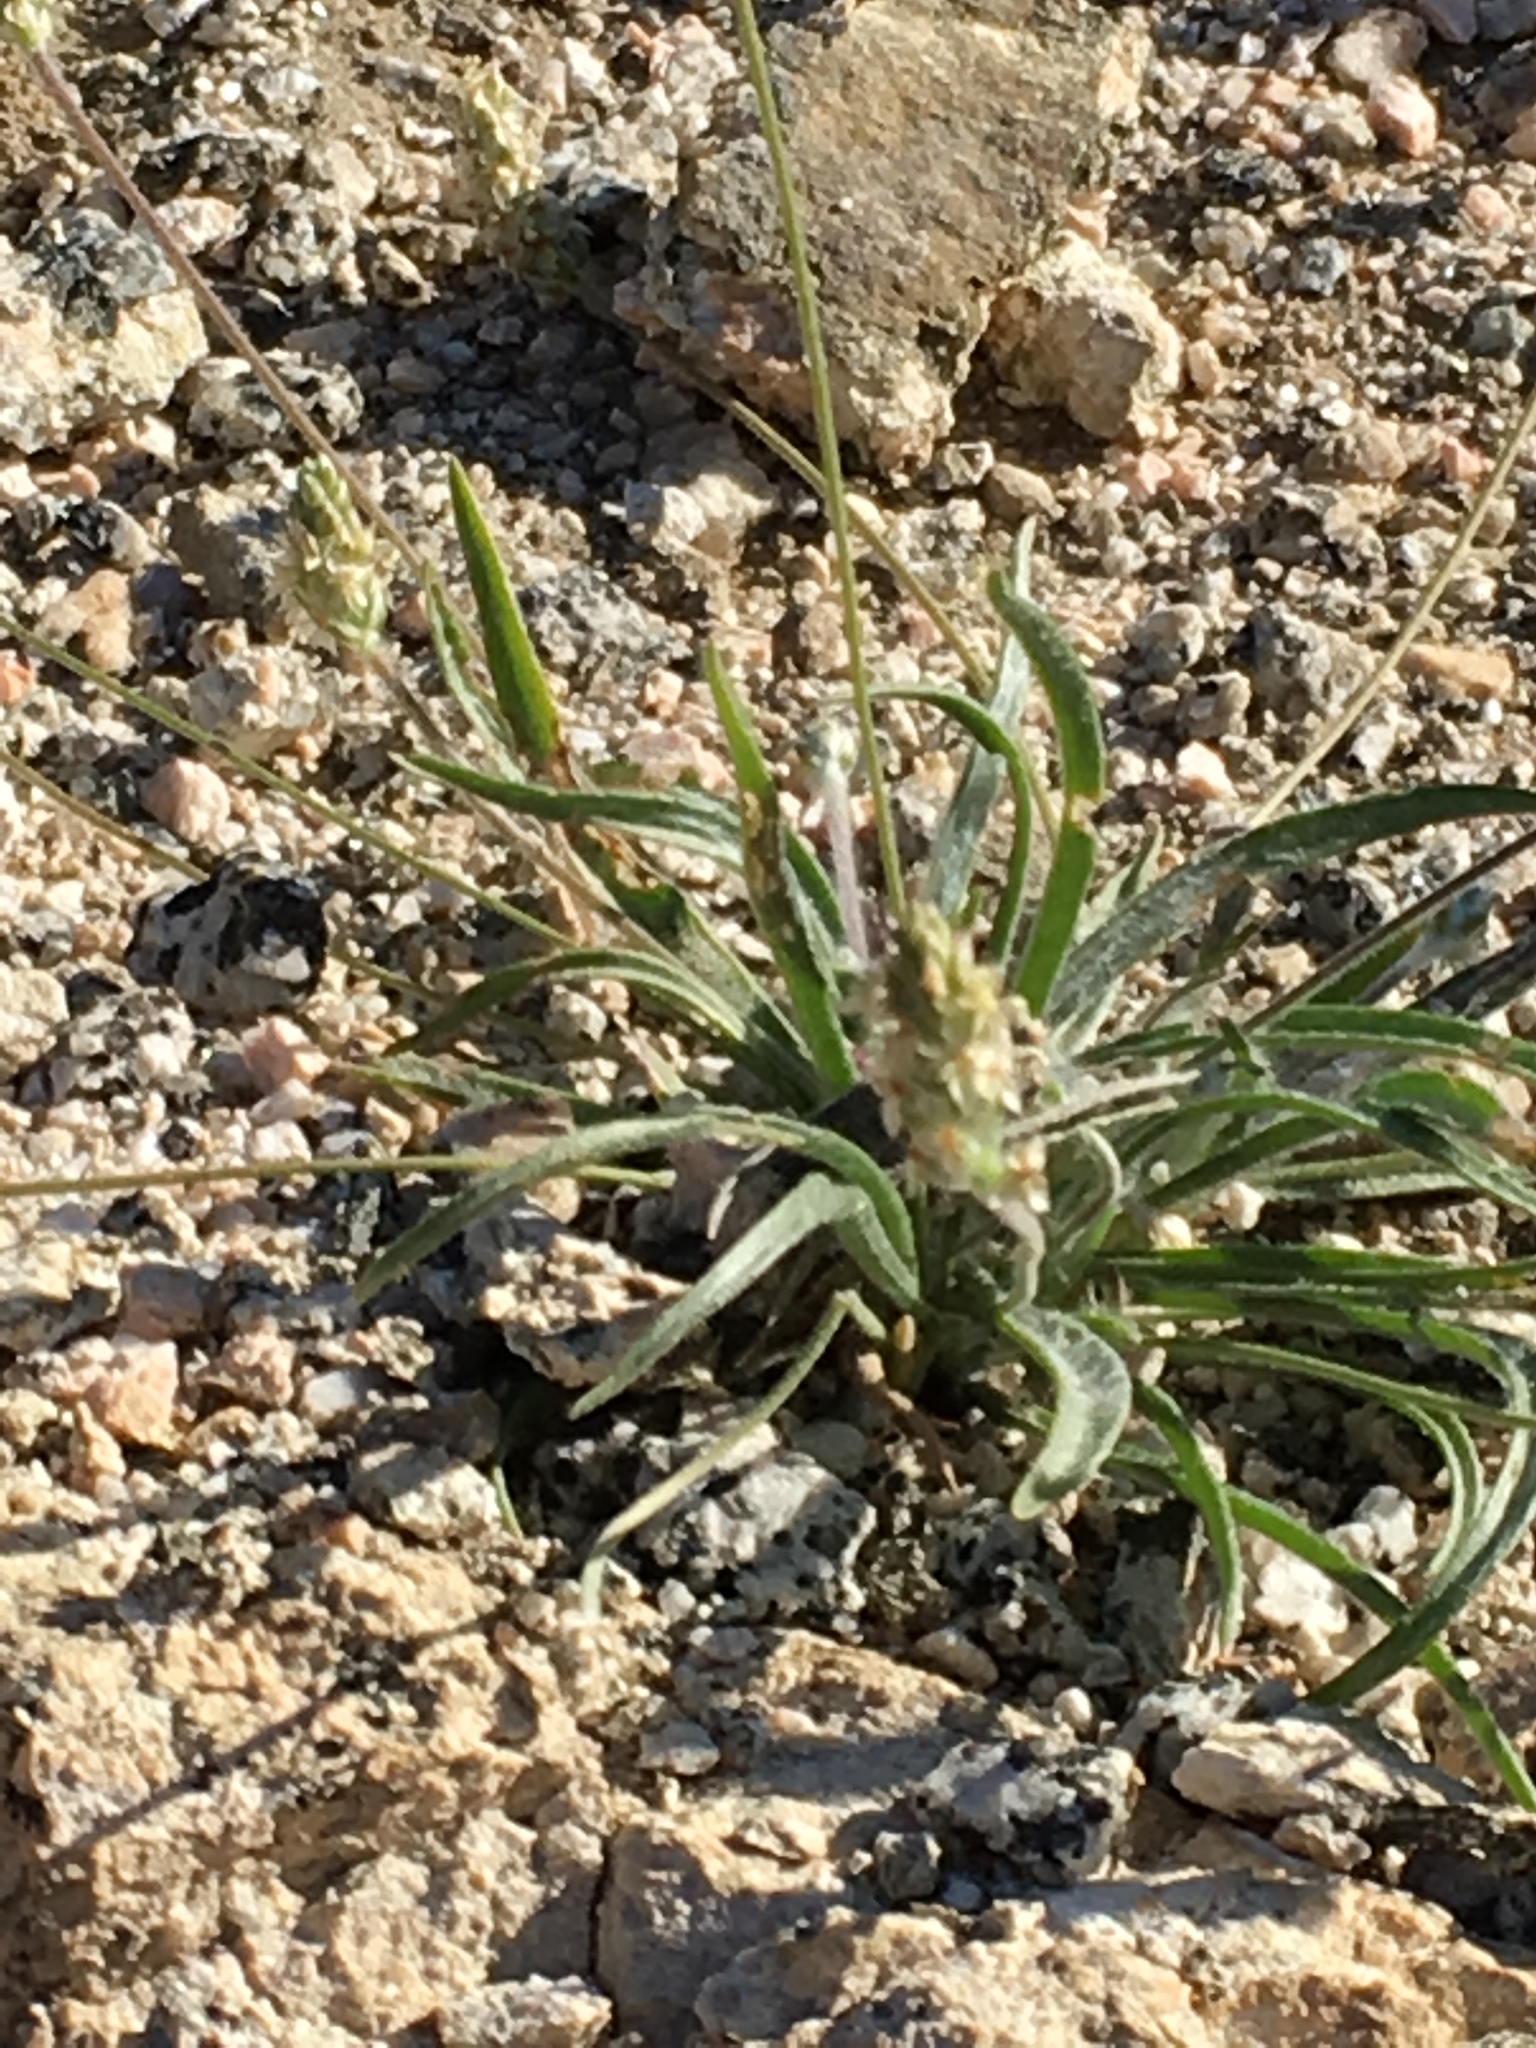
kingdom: Plantae
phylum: Tracheophyta
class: Magnoliopsida
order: Lamiales
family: Plantaginaceae
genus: Plantago
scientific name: Plantago ovata
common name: Blond plantain
